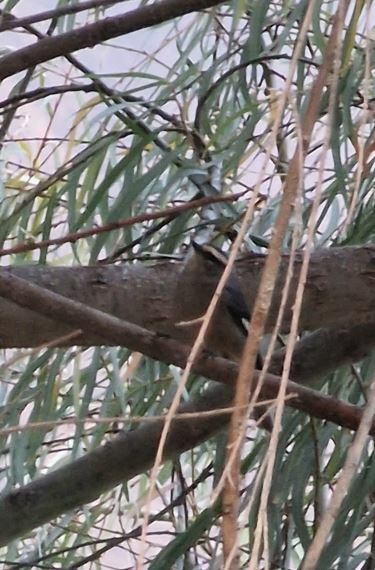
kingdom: Animalia
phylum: Chordata
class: Aves
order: Passeriformes
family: Thraupidae
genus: Conirostrum
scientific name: Conirostrum cinereum
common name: Cinereous conebill
